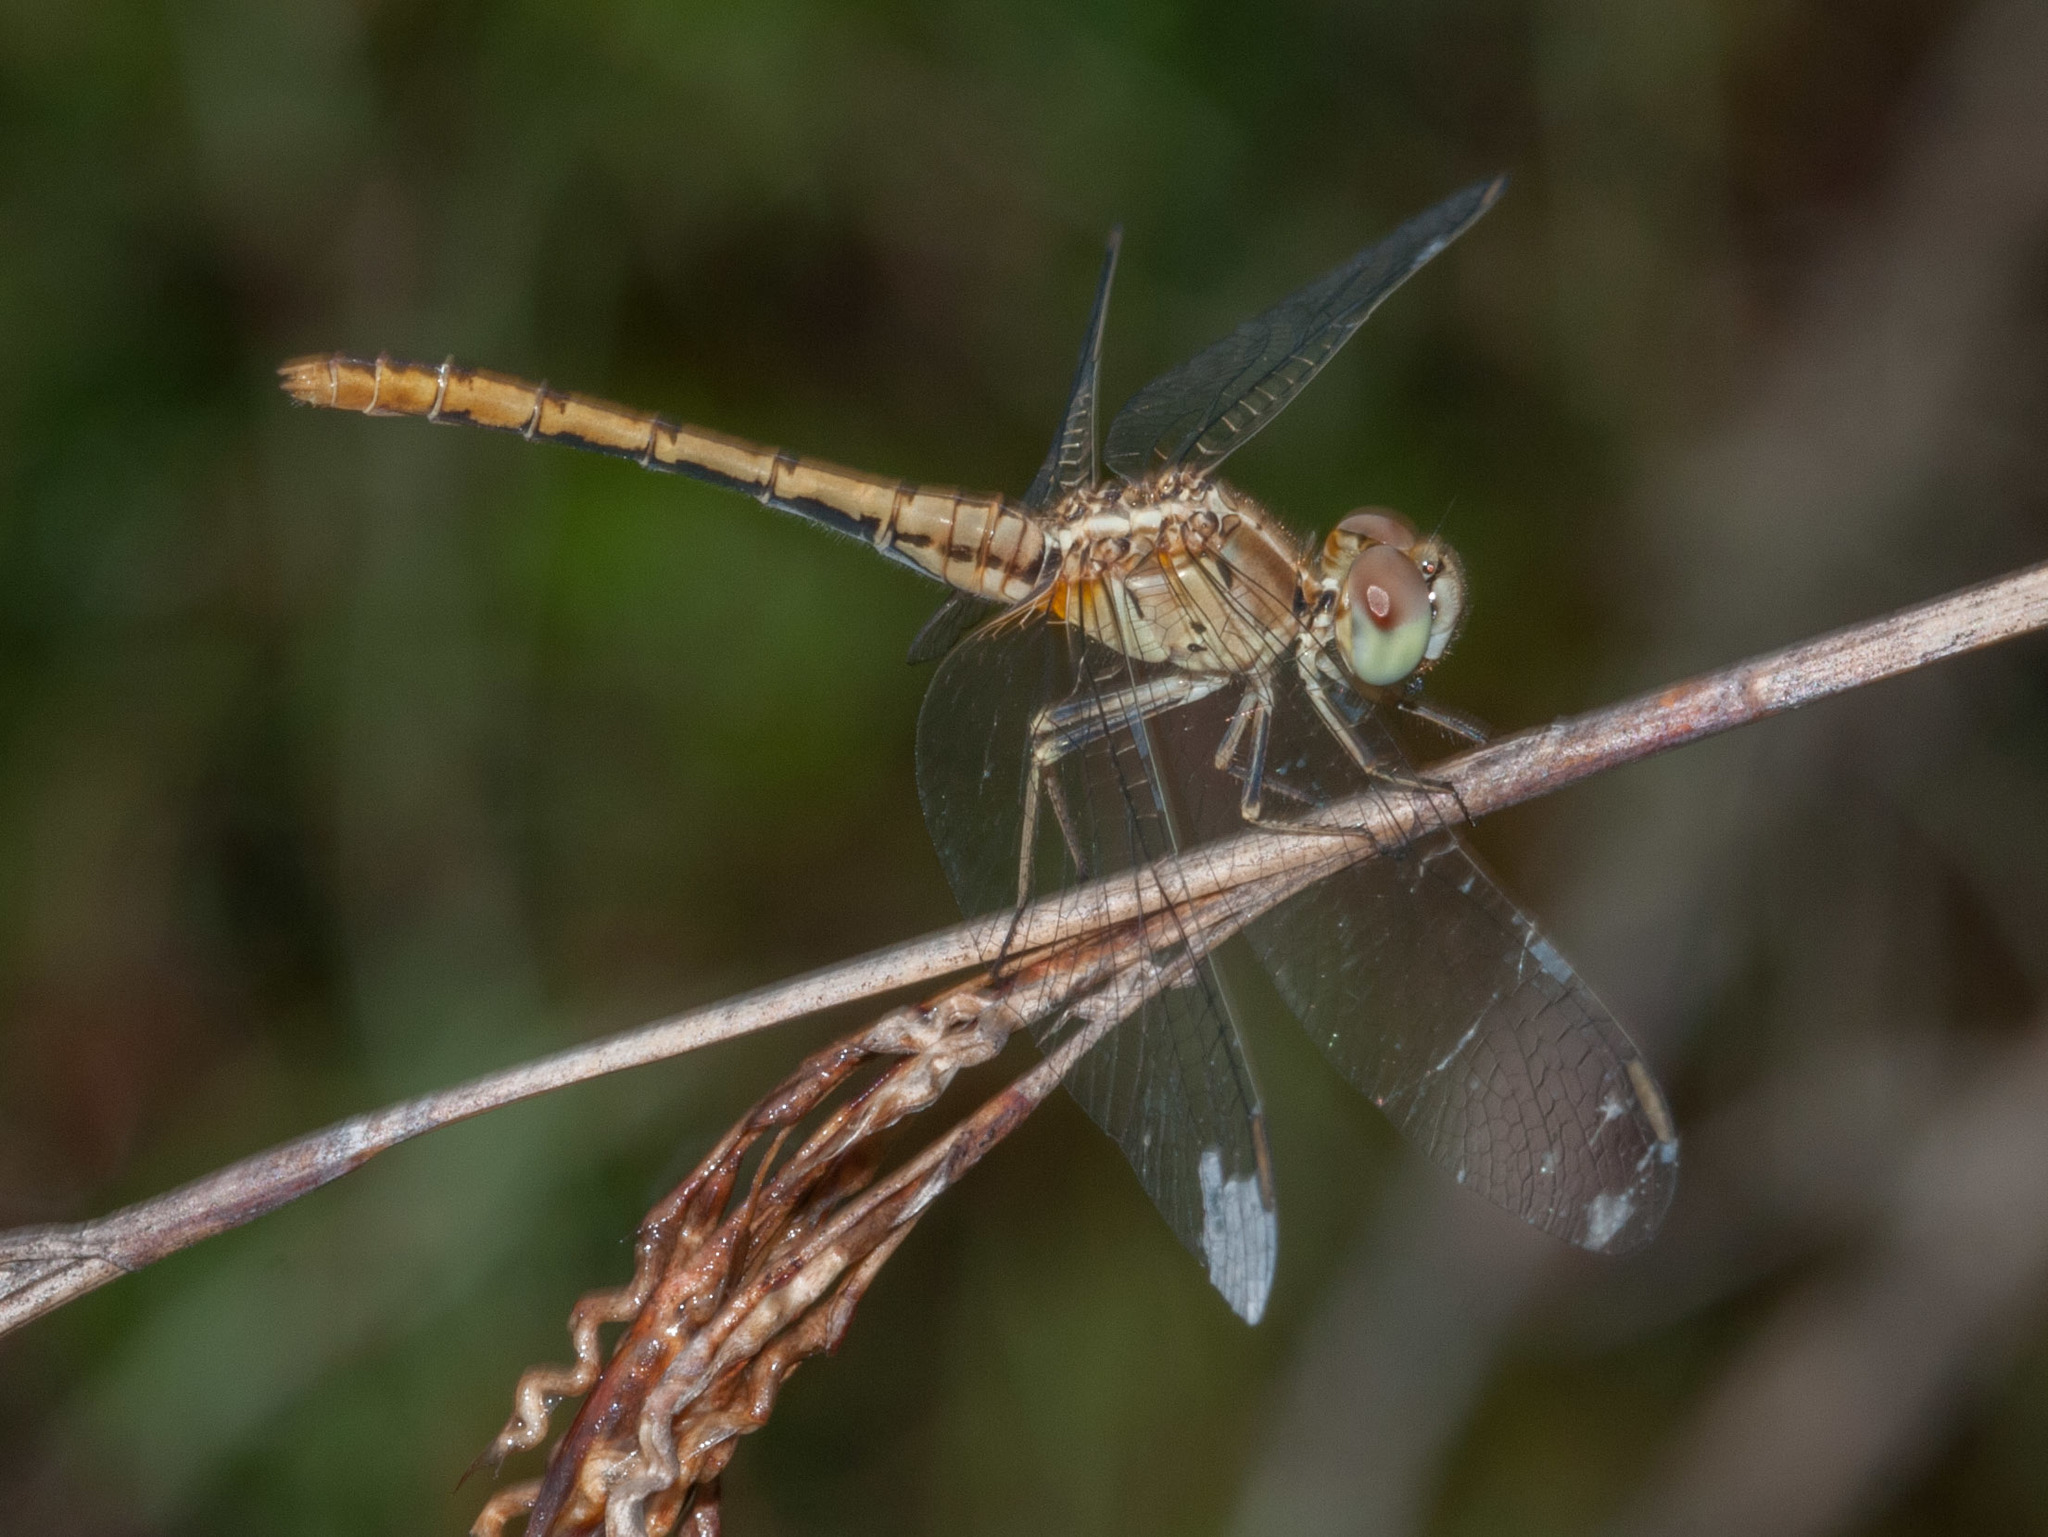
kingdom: Animalia
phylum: Arthropoda
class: Insecta
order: Odonata
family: Libellulidae
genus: Diplacodes
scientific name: Diplacodes bipunctata
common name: Red percher dragonfly
